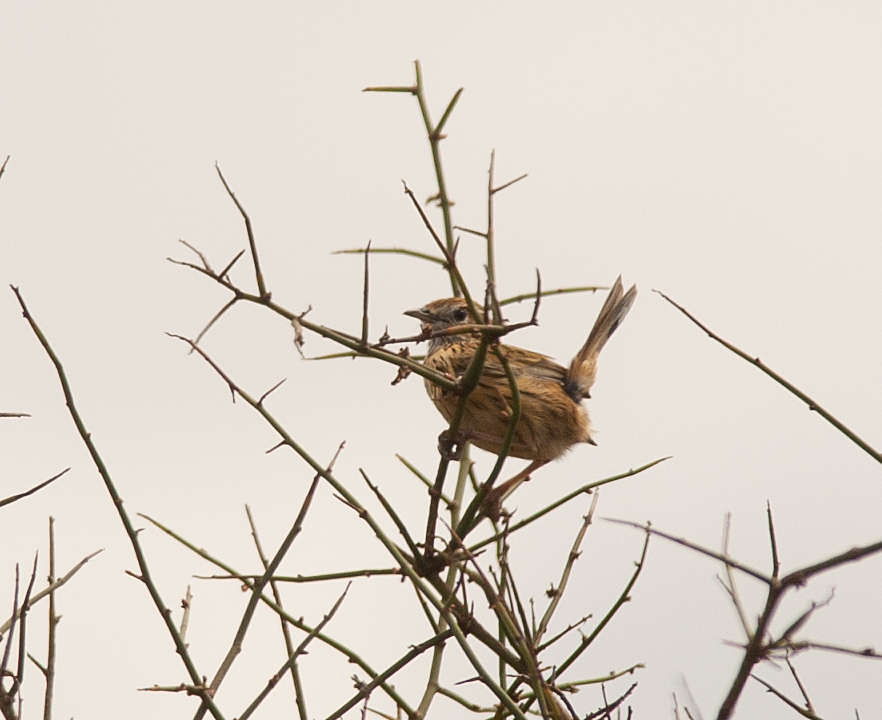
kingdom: Animalia
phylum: Chordata
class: Aves
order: Passeriformes
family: Acanthizidae
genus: Calamanthus
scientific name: Calamanthus fuliginosus
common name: Striated fieldwren
